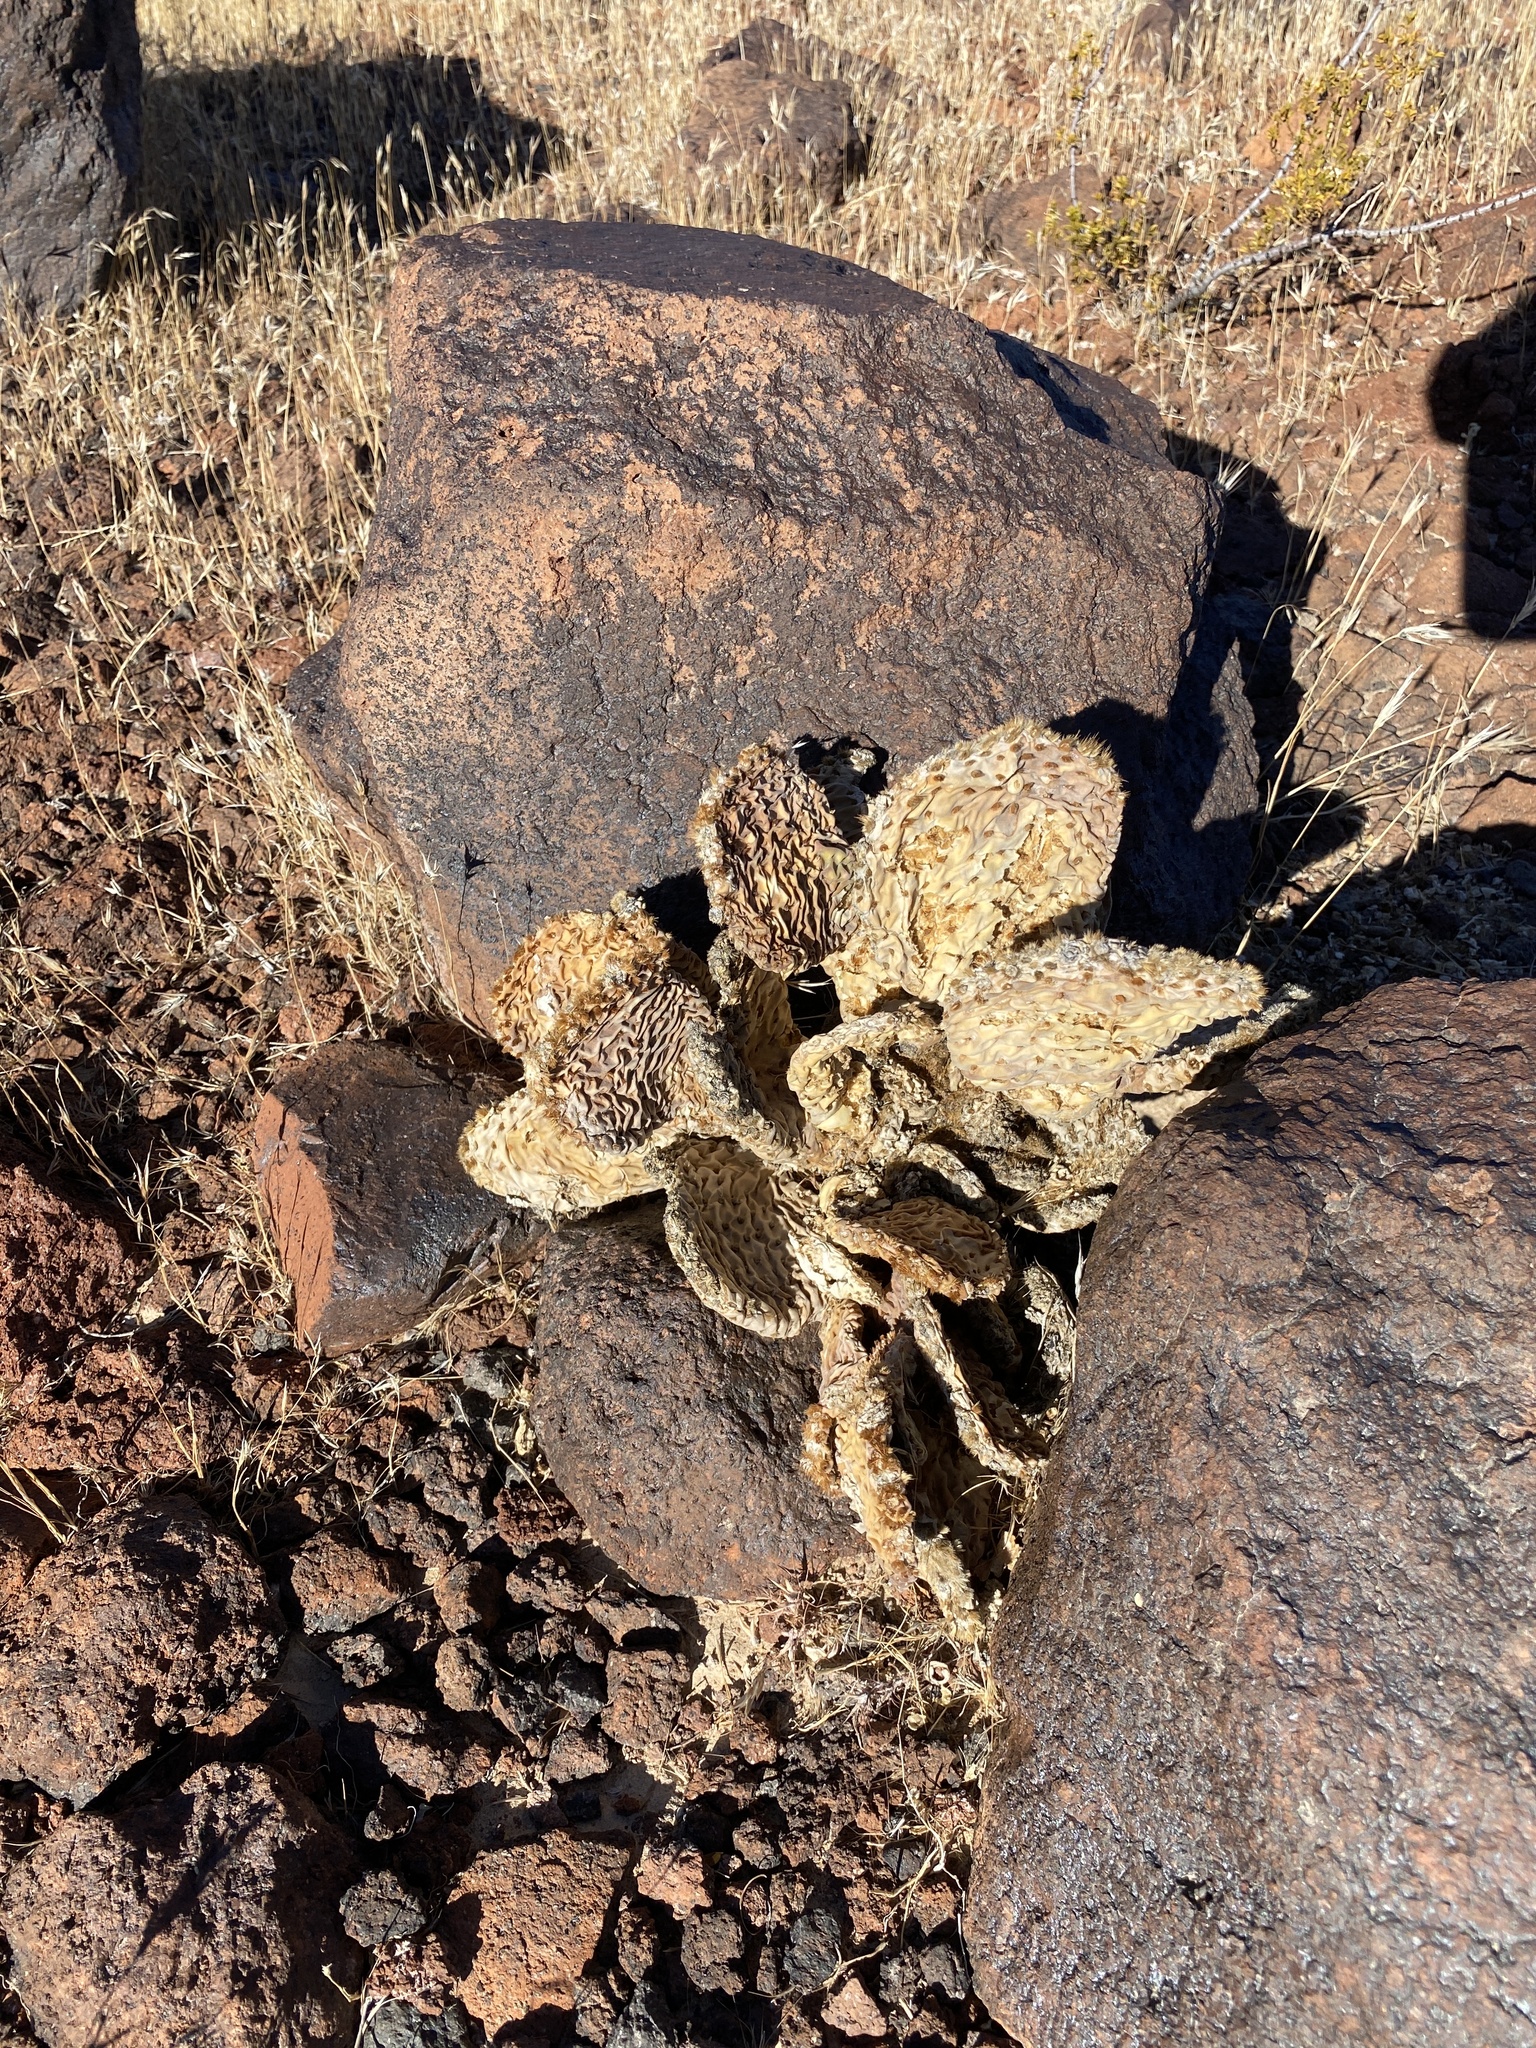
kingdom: Plantae
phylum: Tracheophyta
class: Magnoliopsida
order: Caryophyllales
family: Cactaceae
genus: Opuntia
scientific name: Opuntia basilaris
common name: Beavertail prickly-pear
